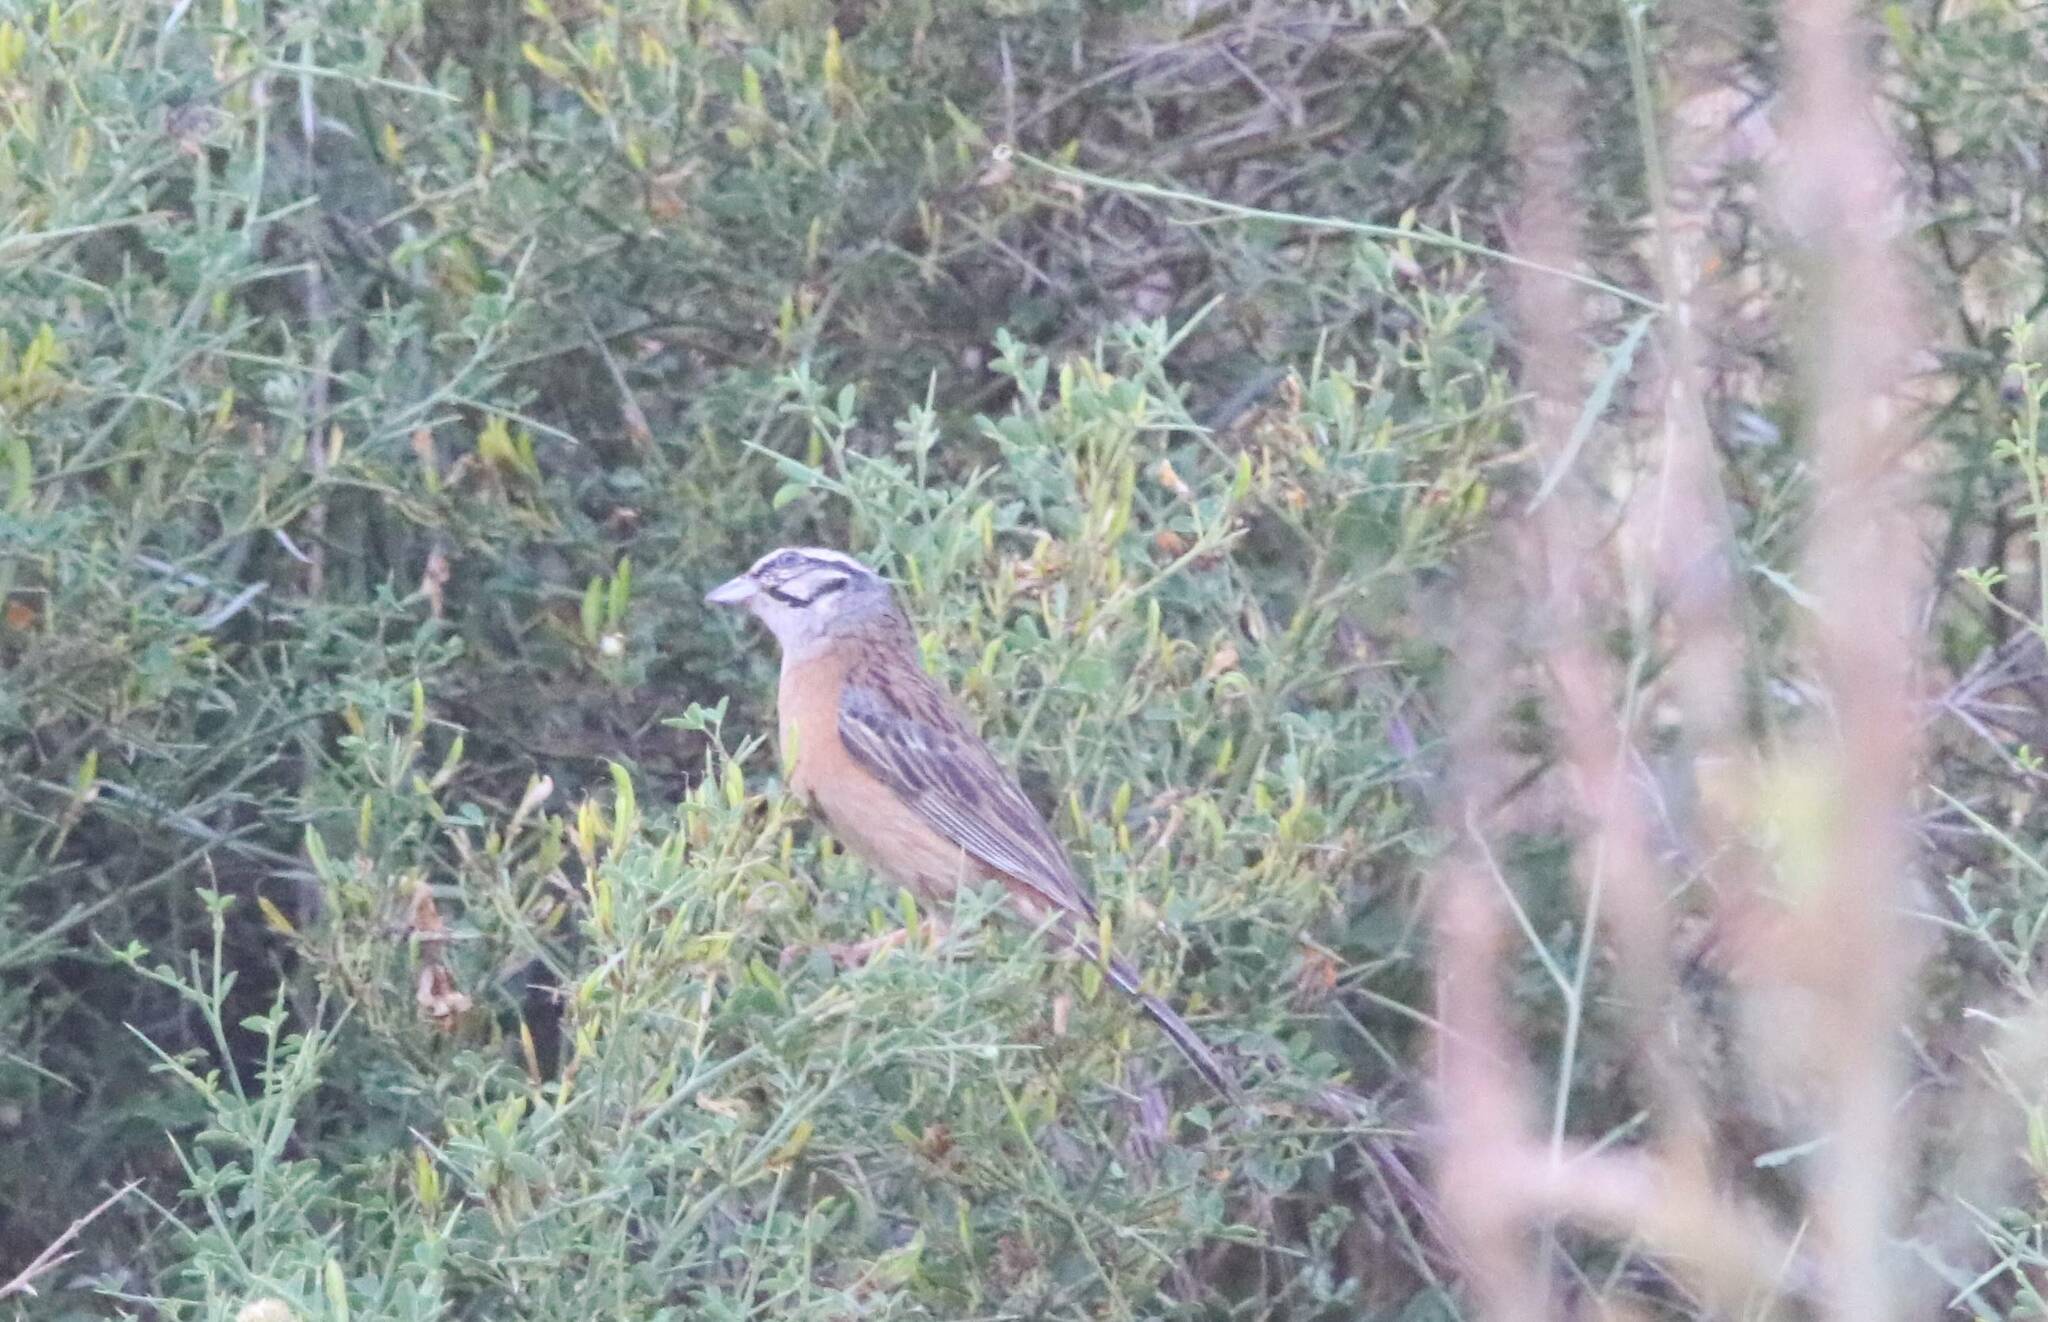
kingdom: Animalia
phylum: Chordata
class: Aves
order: Passeriformes
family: Emberizidae
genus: Emberiza
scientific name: Emberiza cia
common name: Rock bunting
